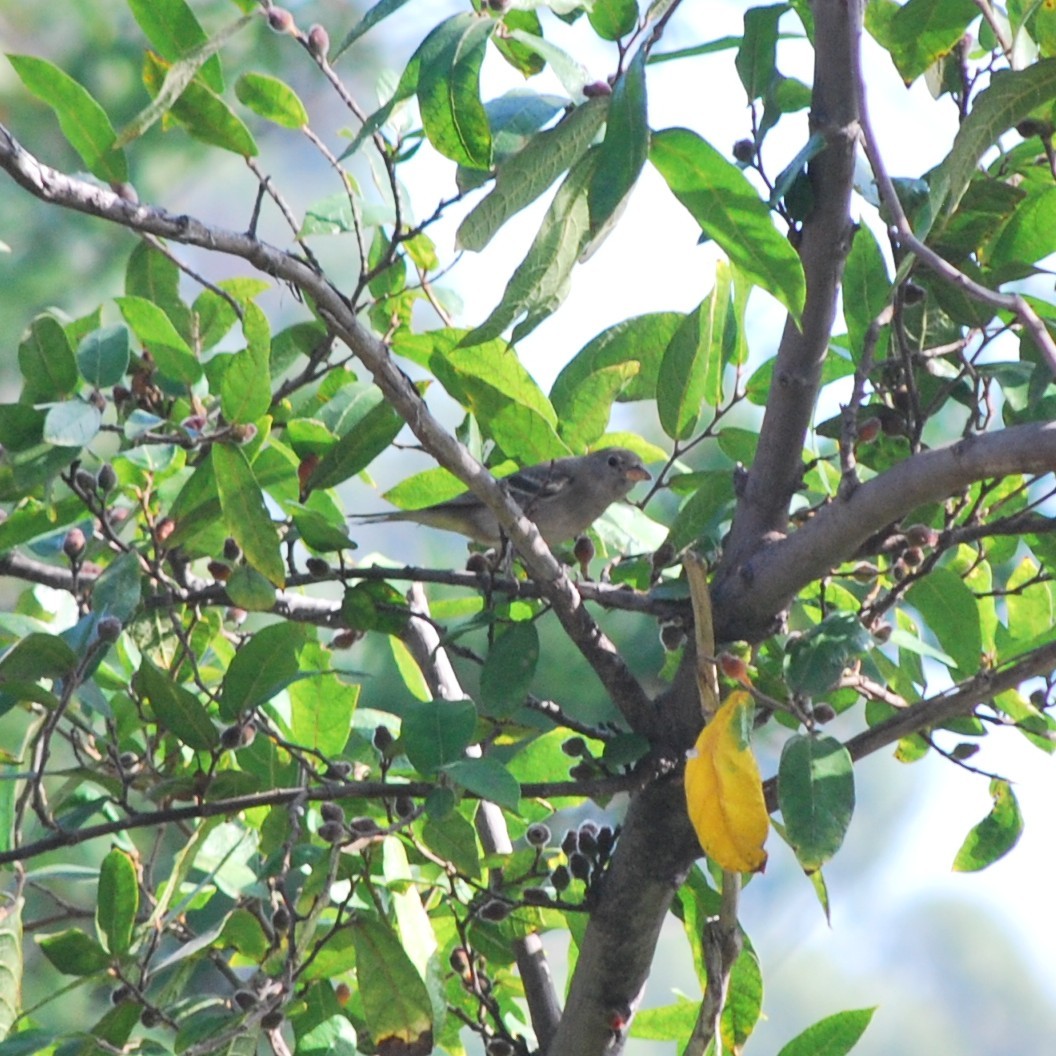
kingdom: Animalia
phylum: Chordata
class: Aves
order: Passeriformes
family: Cardinalidae
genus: Piranga
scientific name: Piranga ludoviciana
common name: Western tanager
